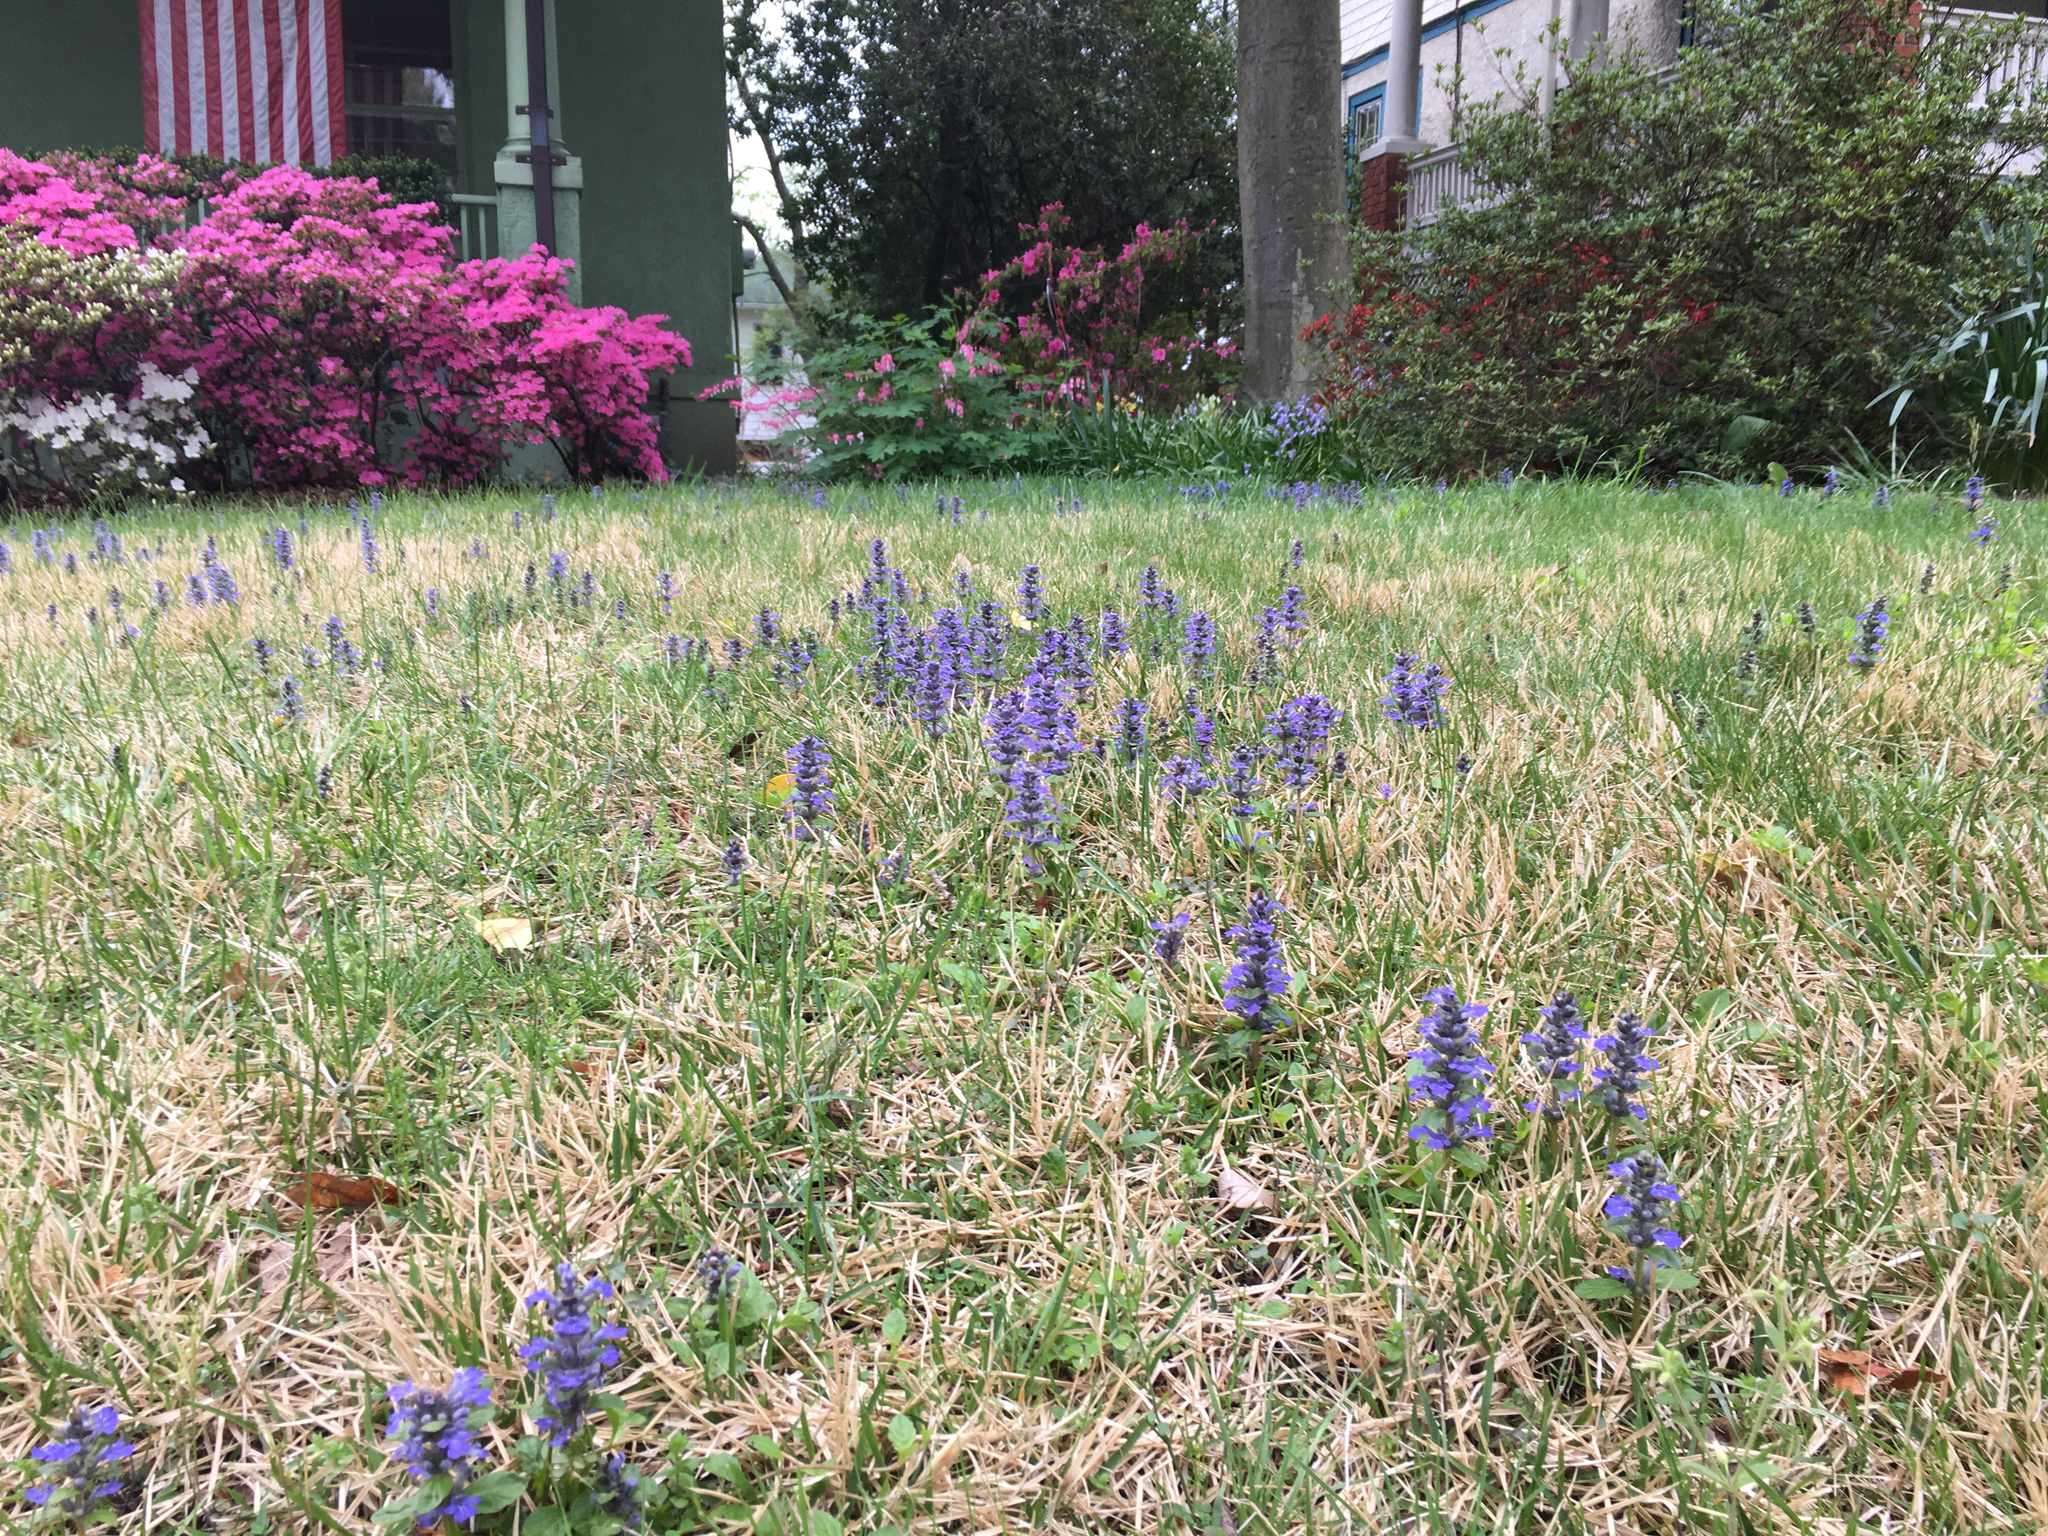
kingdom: Plantae
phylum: Tracheophyta
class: Magnoliopsida
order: Lamiales
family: Lamiaceae
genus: Ajuga
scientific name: Ajuga reptans
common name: Bugle
